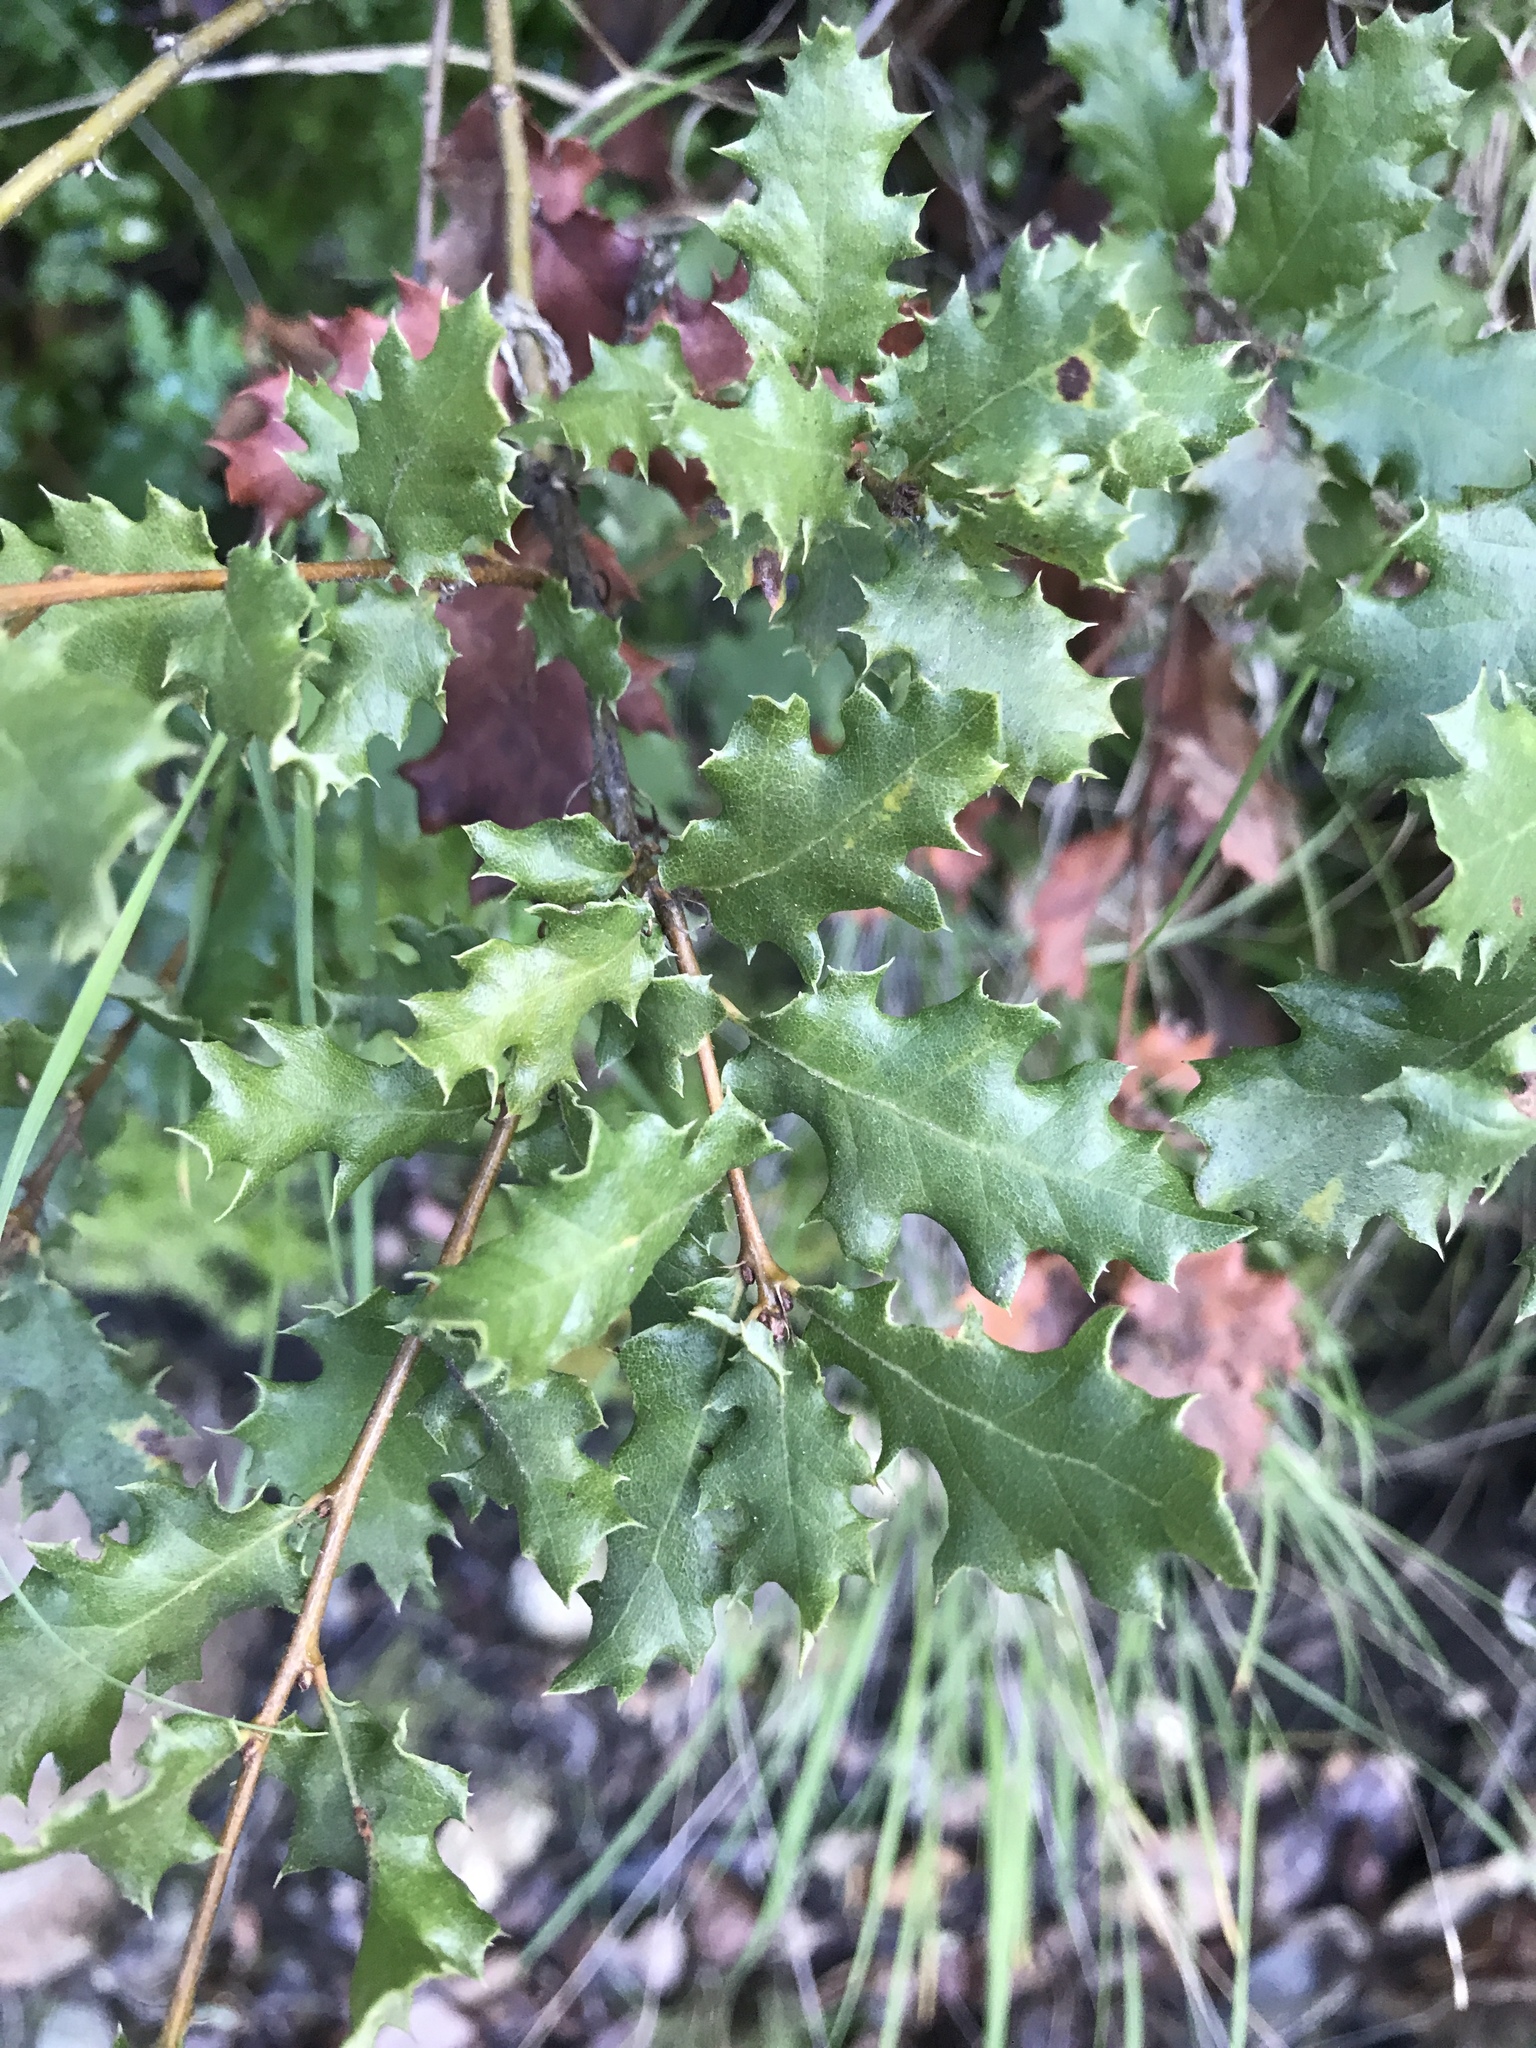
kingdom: Plantae
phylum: Tracheophyta
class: Magnoliopsida
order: Fagales
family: Fagaceae
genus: Quercus
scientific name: Quercus berberidifolia
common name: California scrub oak
